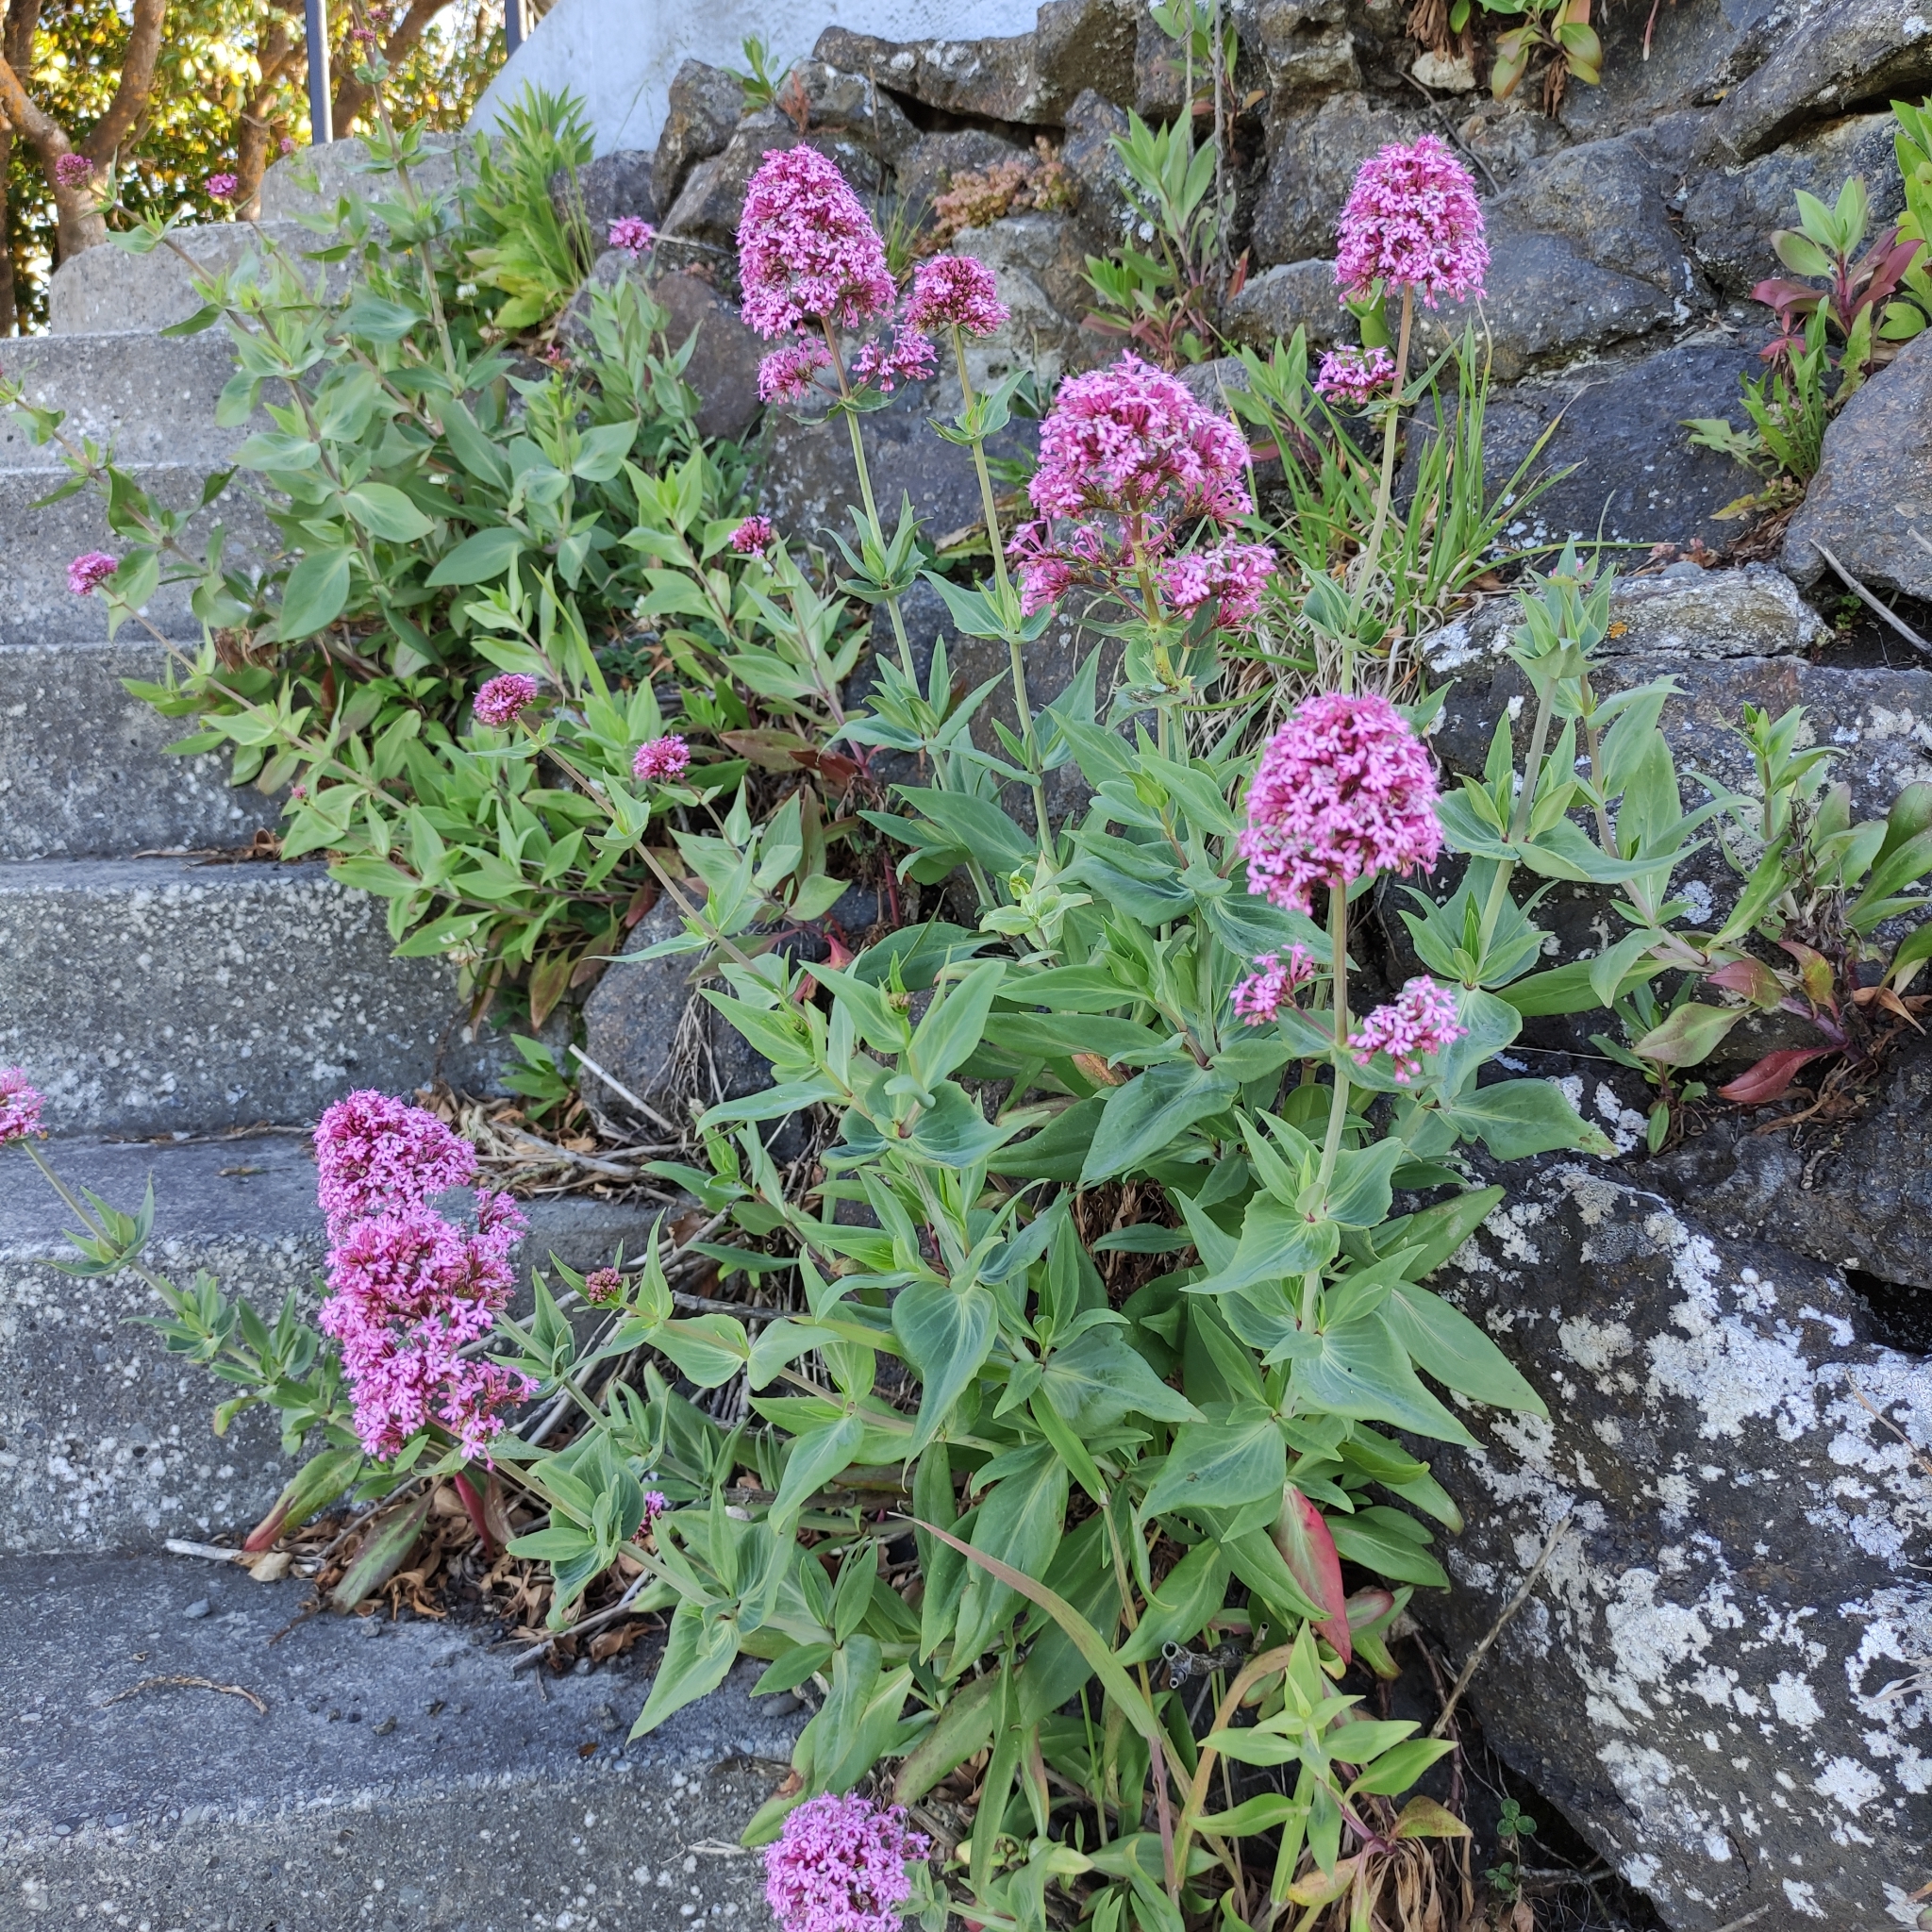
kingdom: Plantae
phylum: Tracheophyta
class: Magnoliopsida
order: Dipsacales
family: Caprifoliaceae
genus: Centranthus
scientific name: Centranthus ruber
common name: Red valerian
